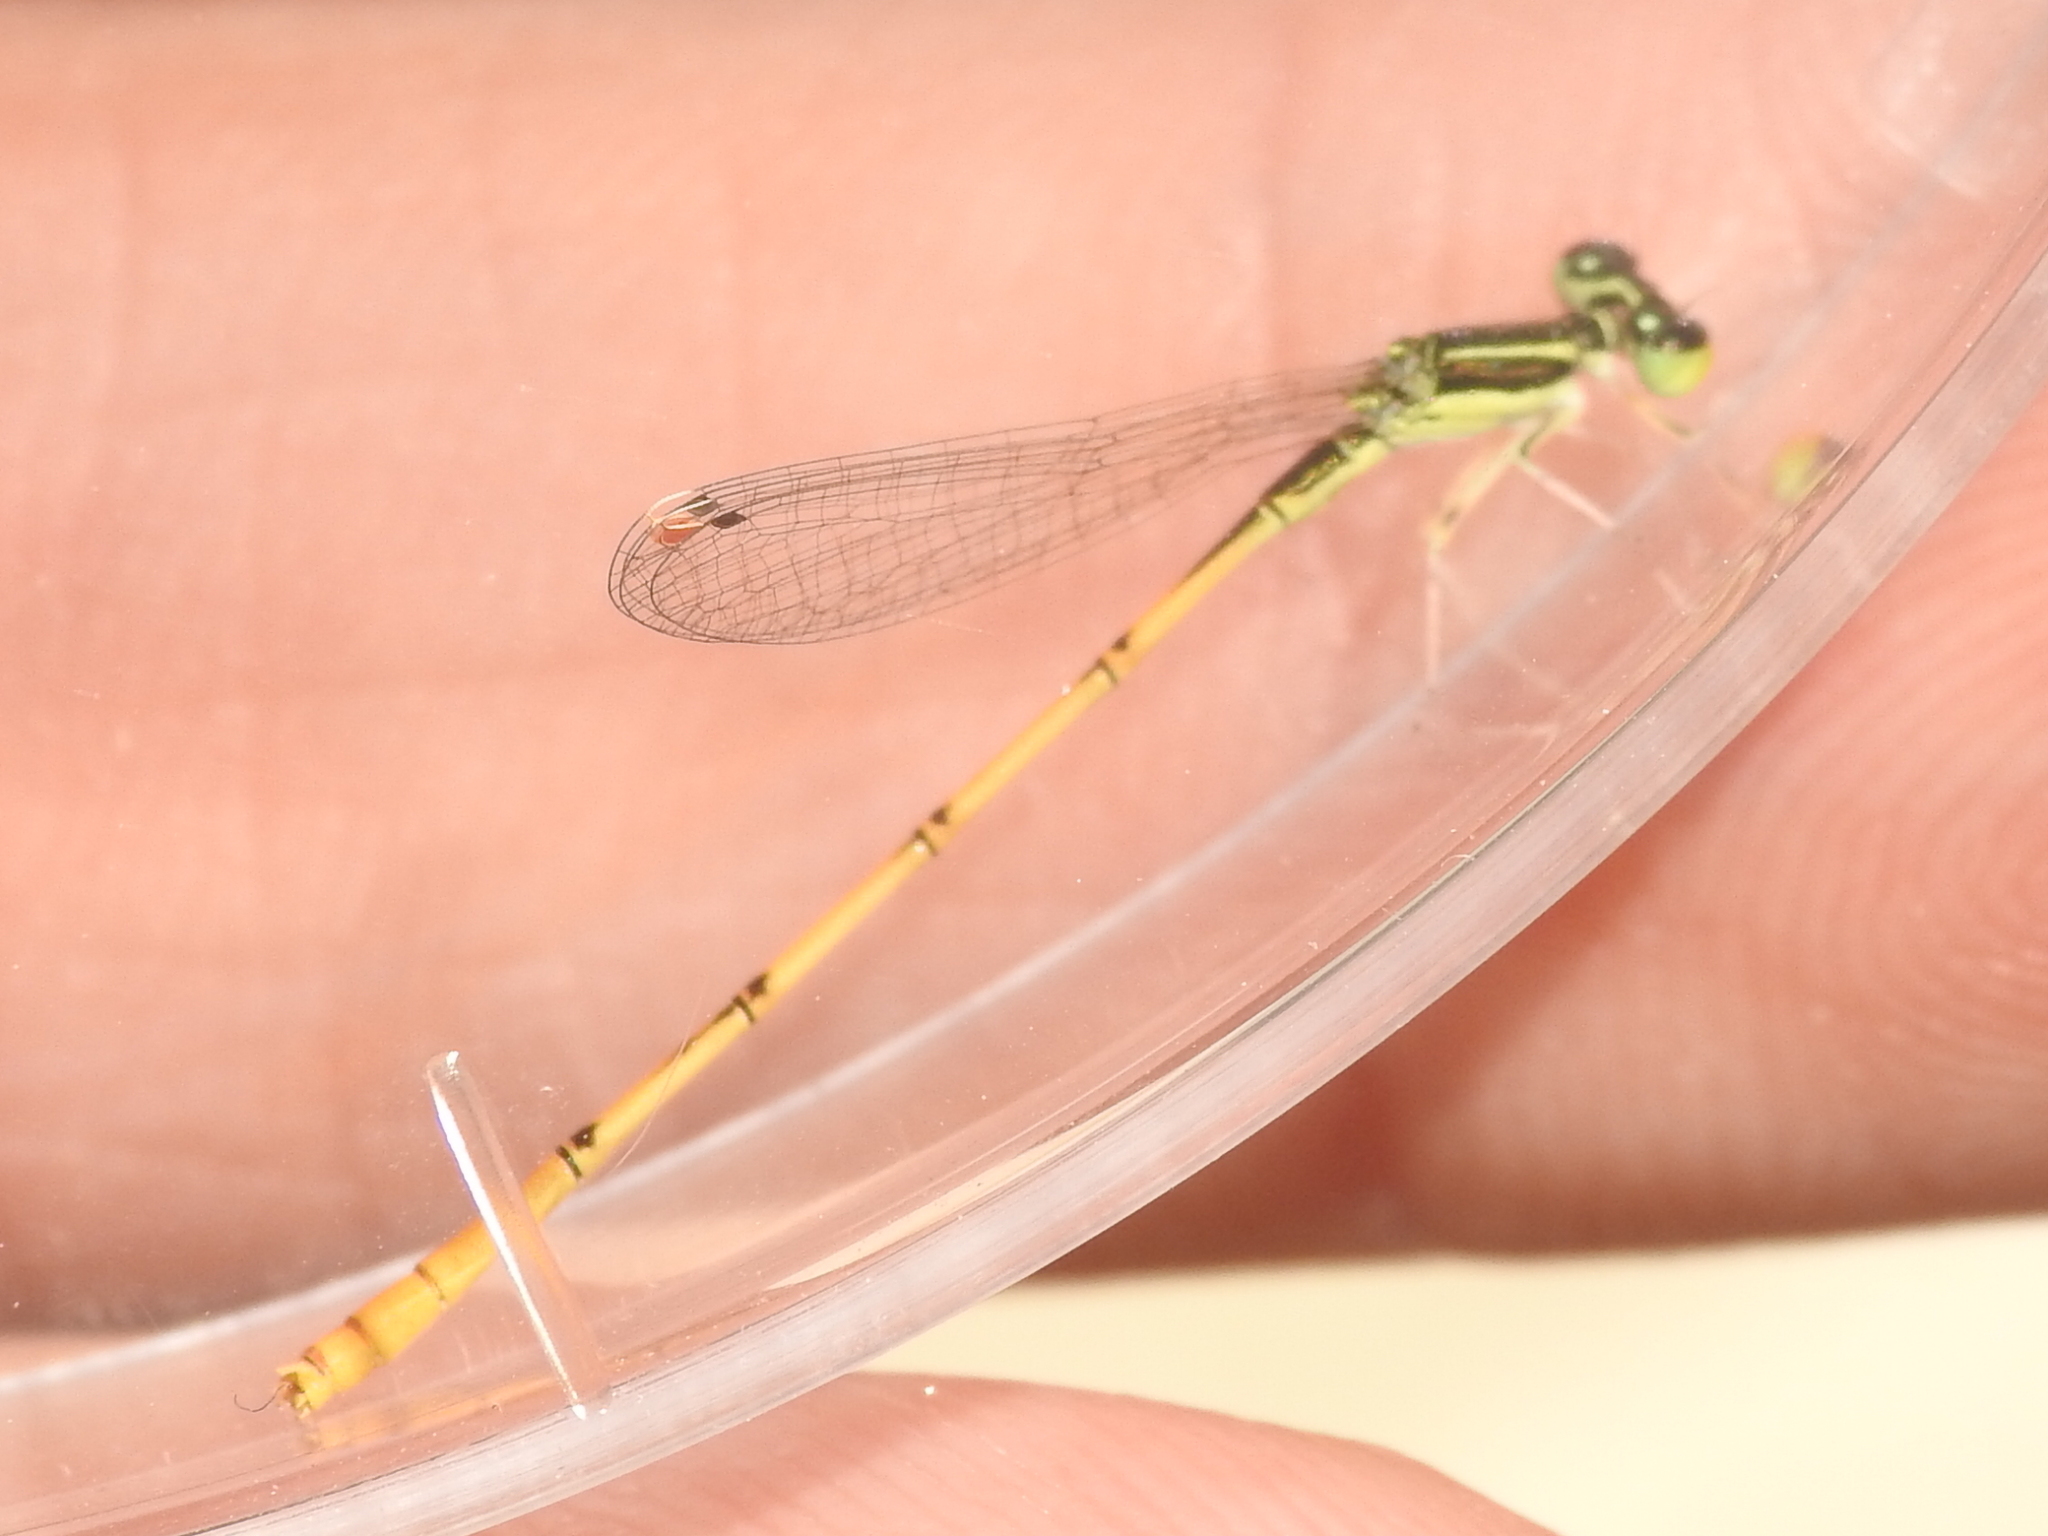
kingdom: Animalia
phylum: Arthropoda
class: Insecta
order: Odonata
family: Coenagrionidae
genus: Ischnura
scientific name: Ischnura hastata
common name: Citrine forktail
